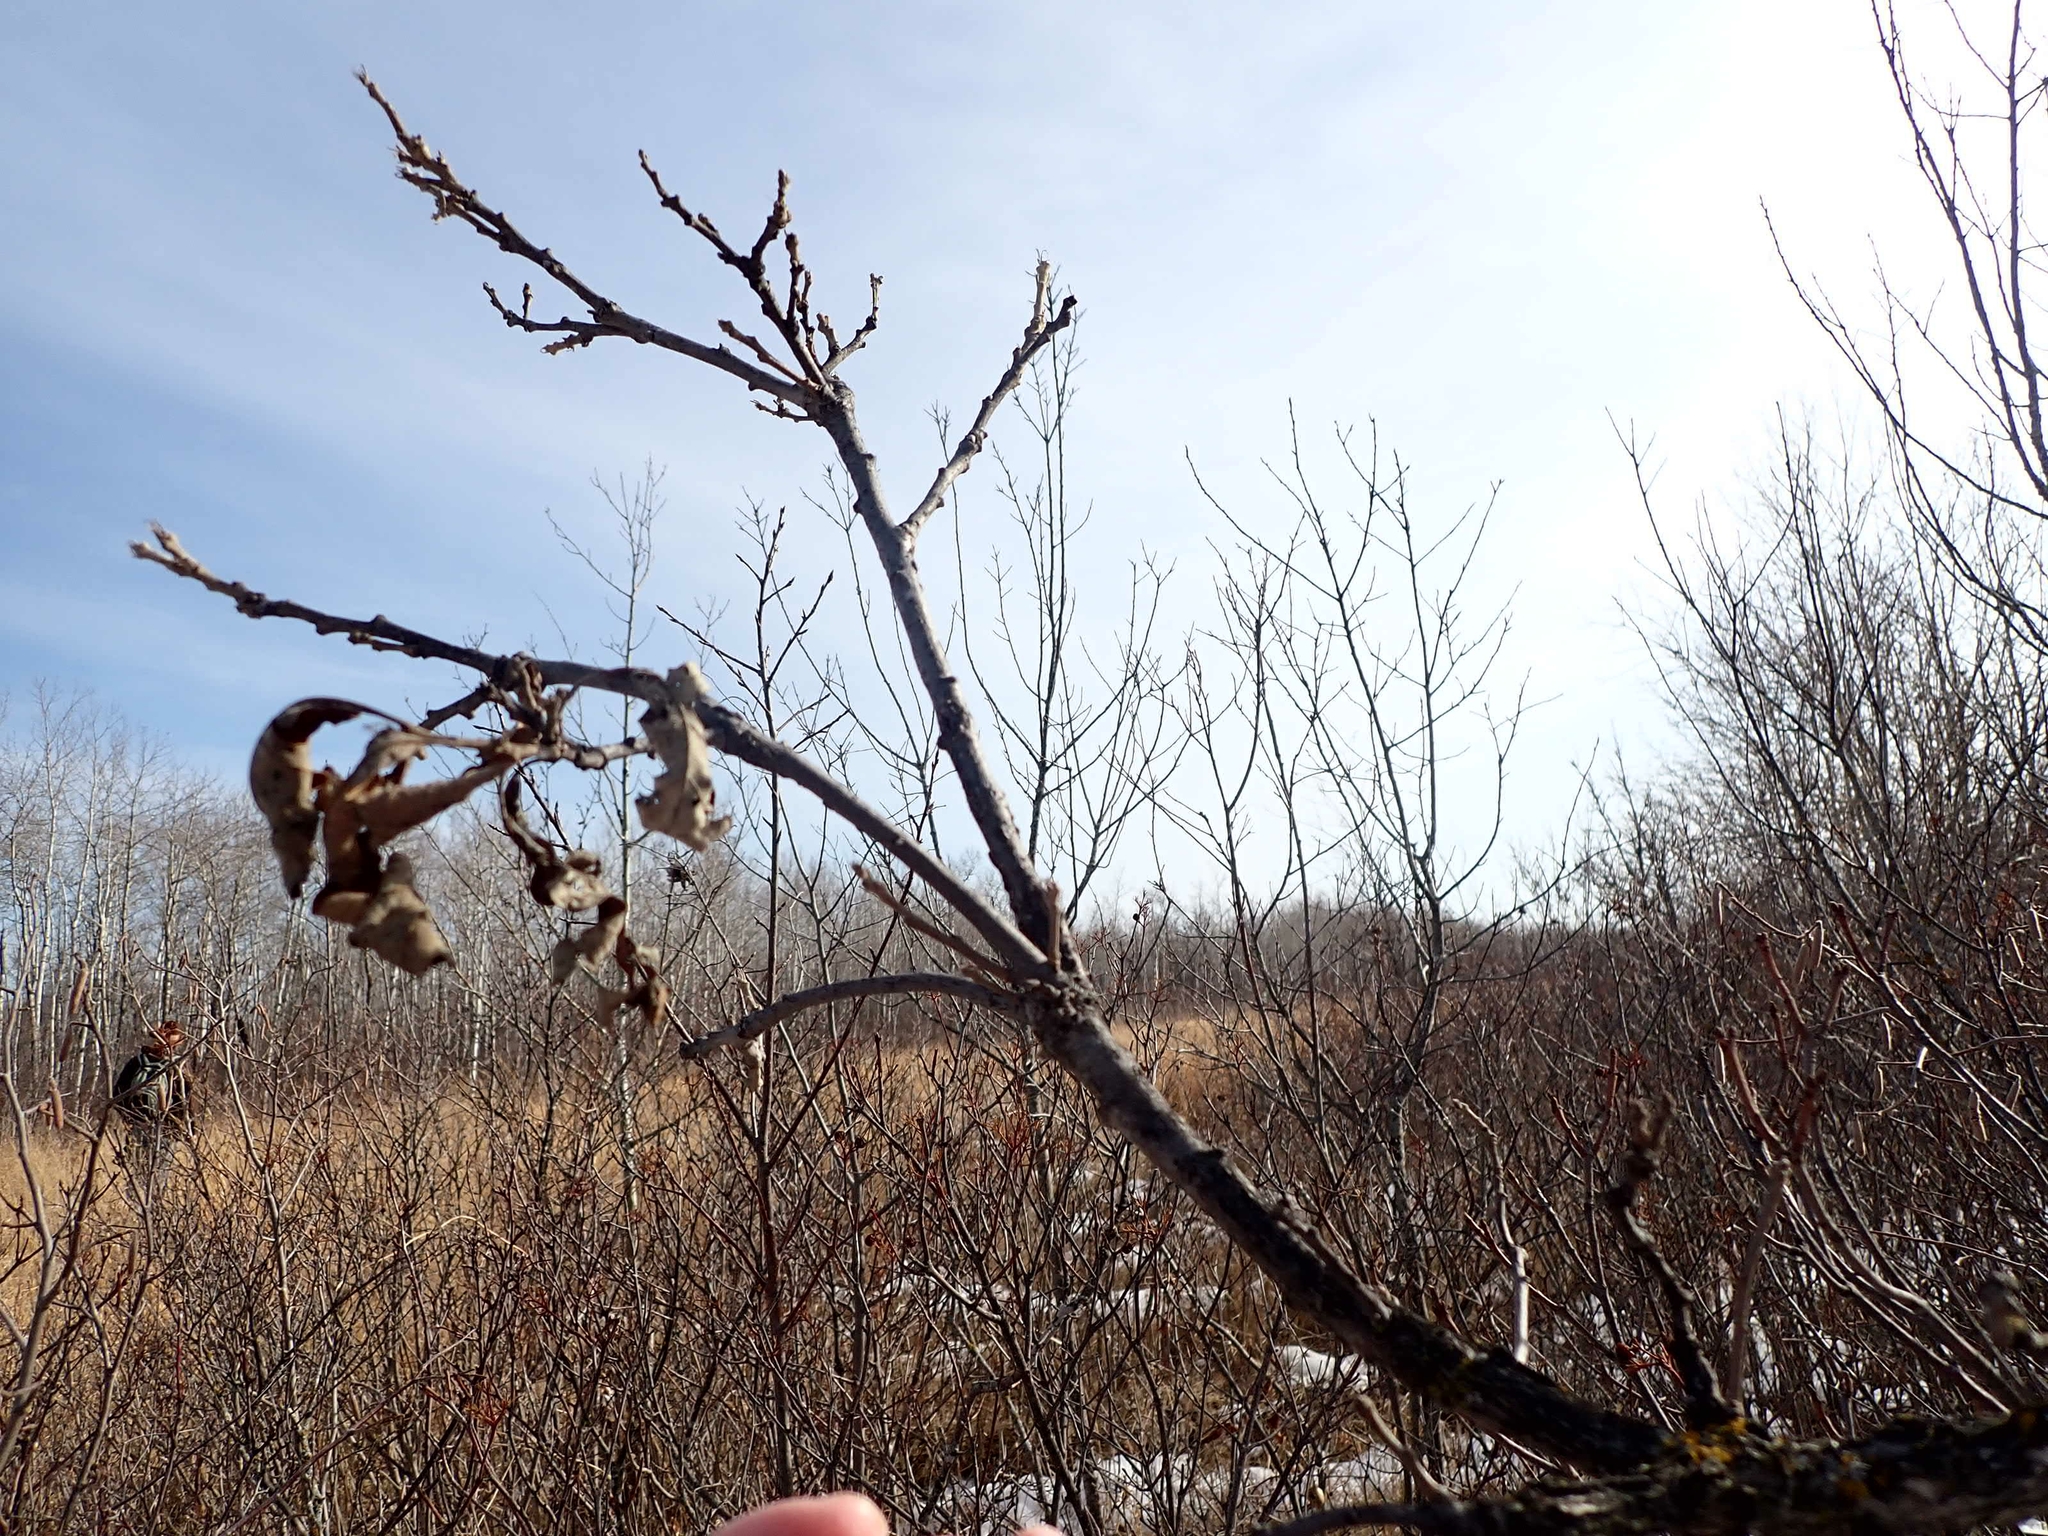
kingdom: Plantae
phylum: Tracheophyta
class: Magnoliopsida
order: Fagales
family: Fagaceae
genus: Quercus
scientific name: Quercus macrocarpa
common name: Bur oak
